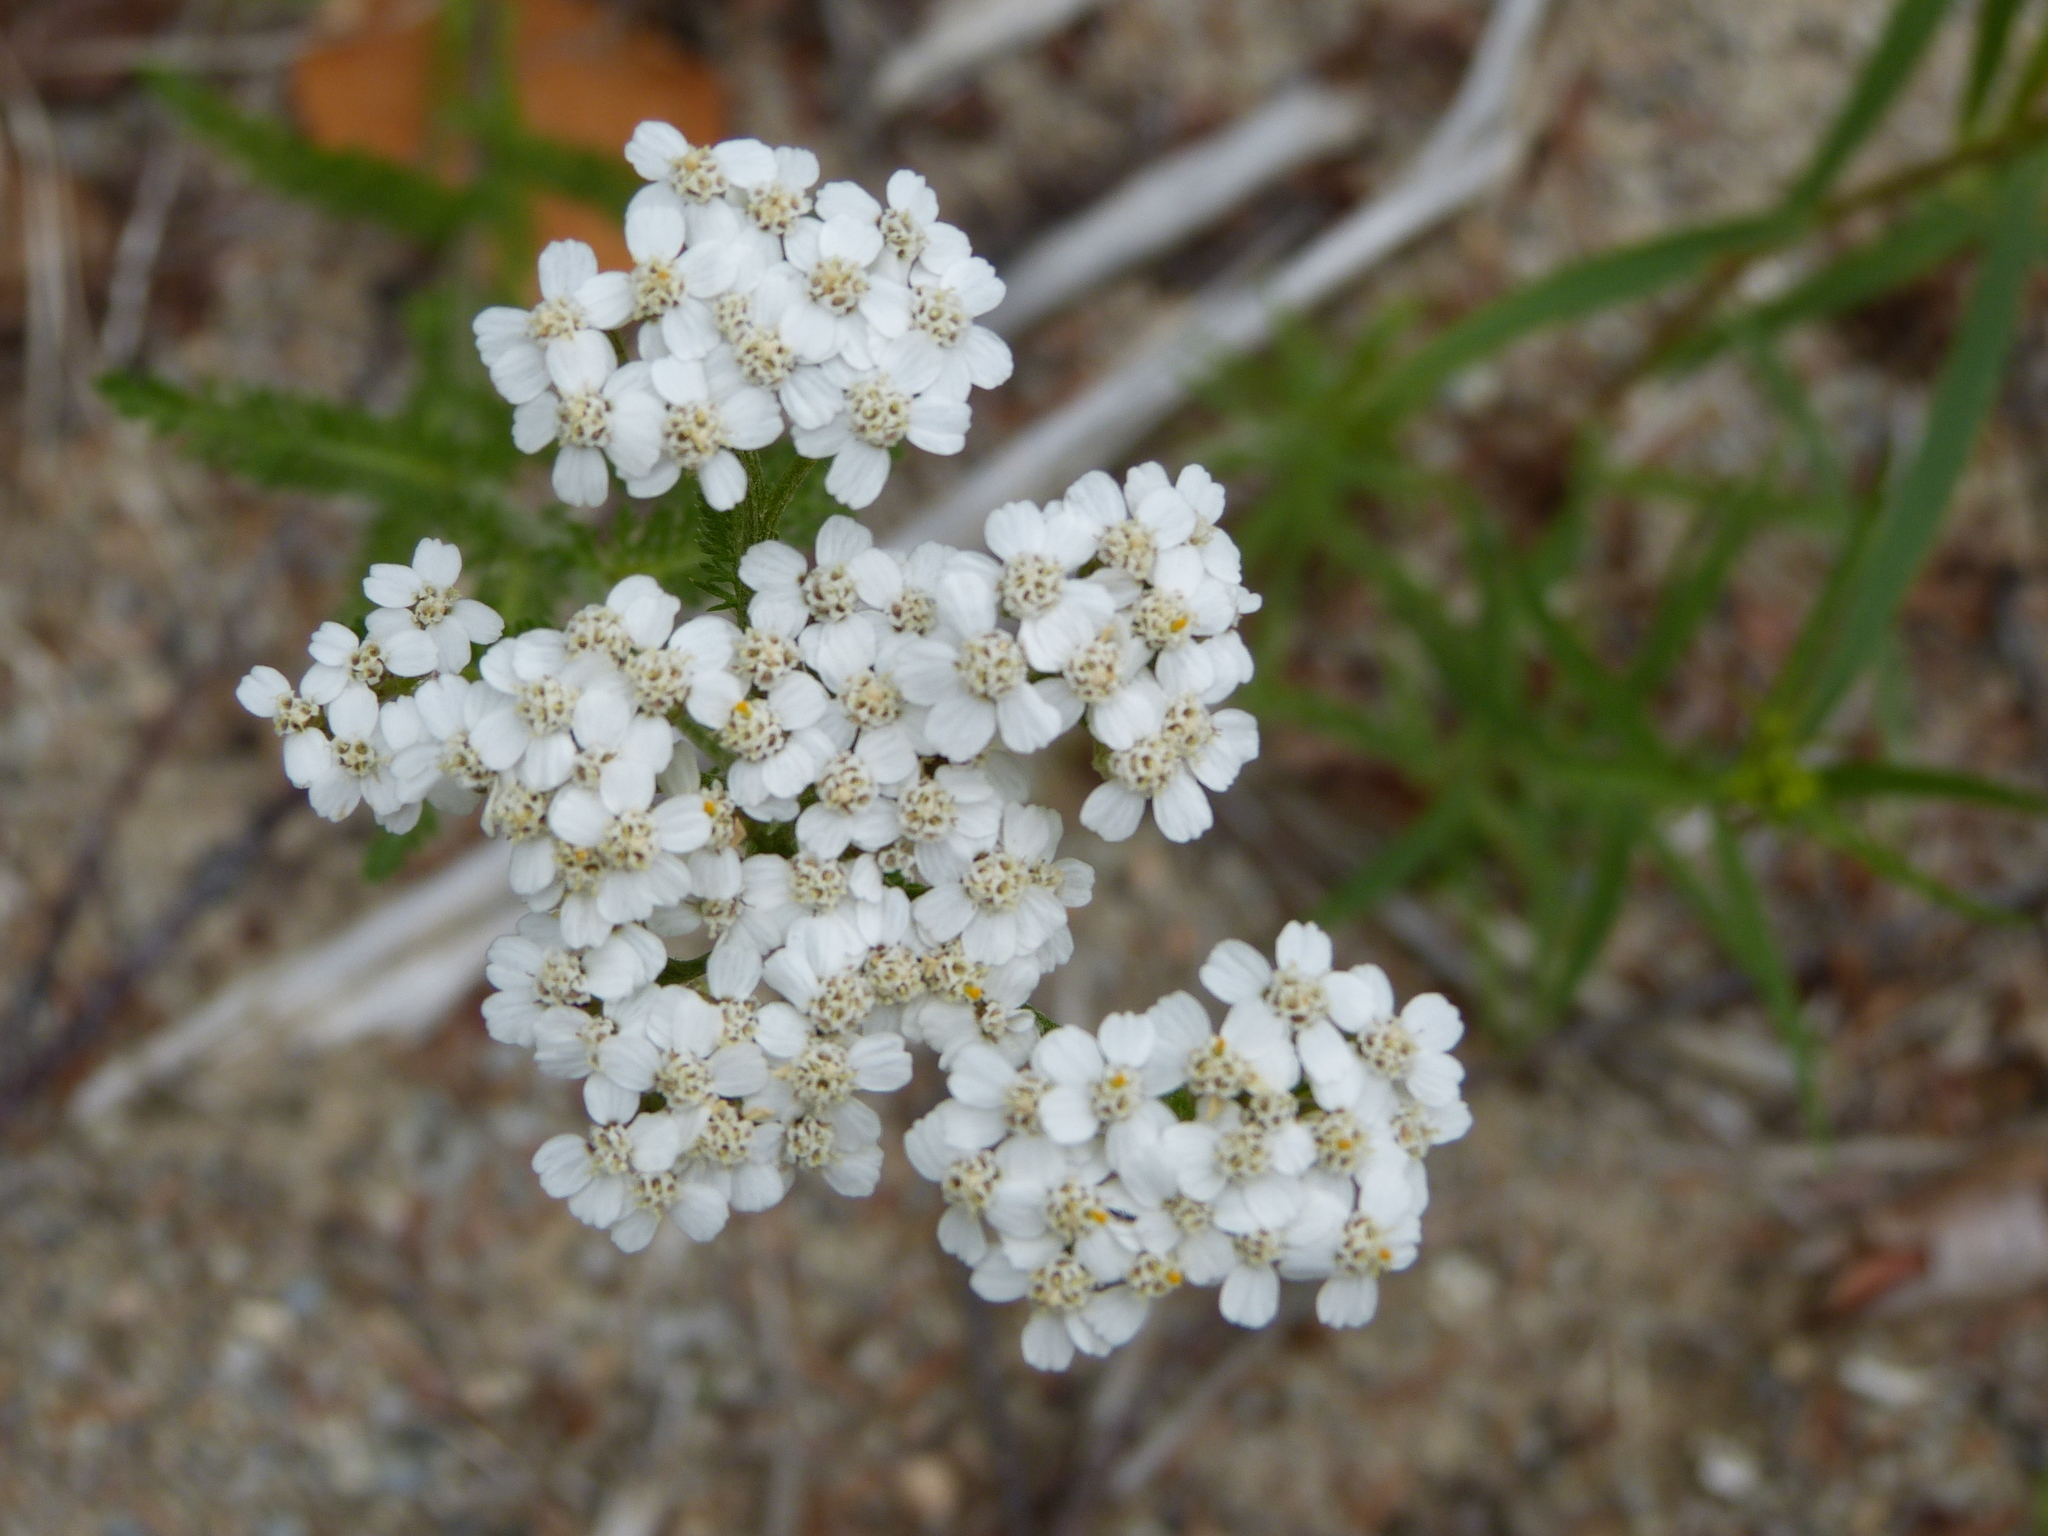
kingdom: Plantae
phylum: Tracheophyta
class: Magnoliopsida
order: Asterales
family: Asteraceae
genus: Achillea
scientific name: Achillea millefolium
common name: Yarrow
